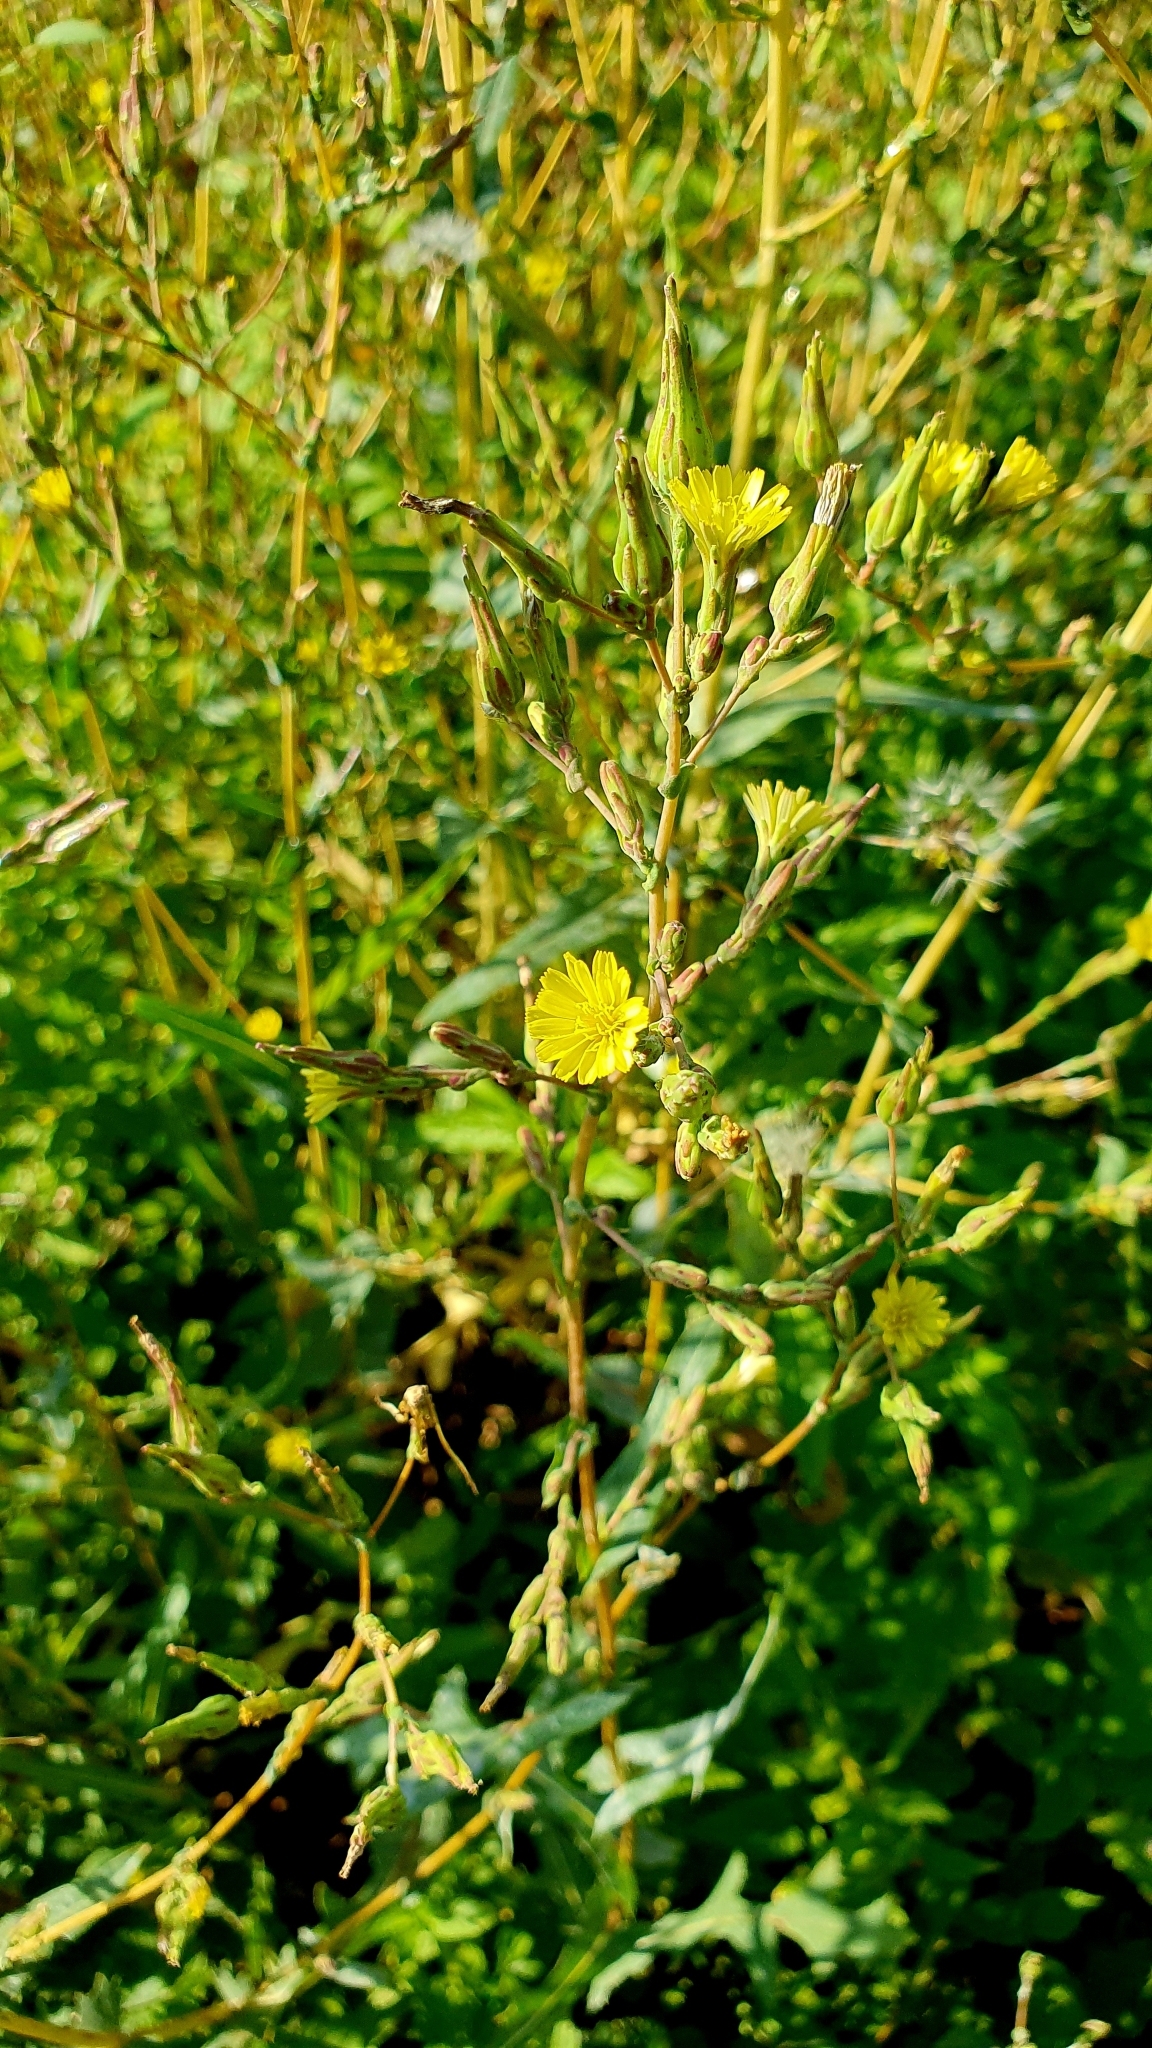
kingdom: Plantae
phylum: Tracheophyta
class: Magnoliopsida
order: Asterales
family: Asteraceae
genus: Lactuca
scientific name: Lactuca serriola
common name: Prickly lettuce
